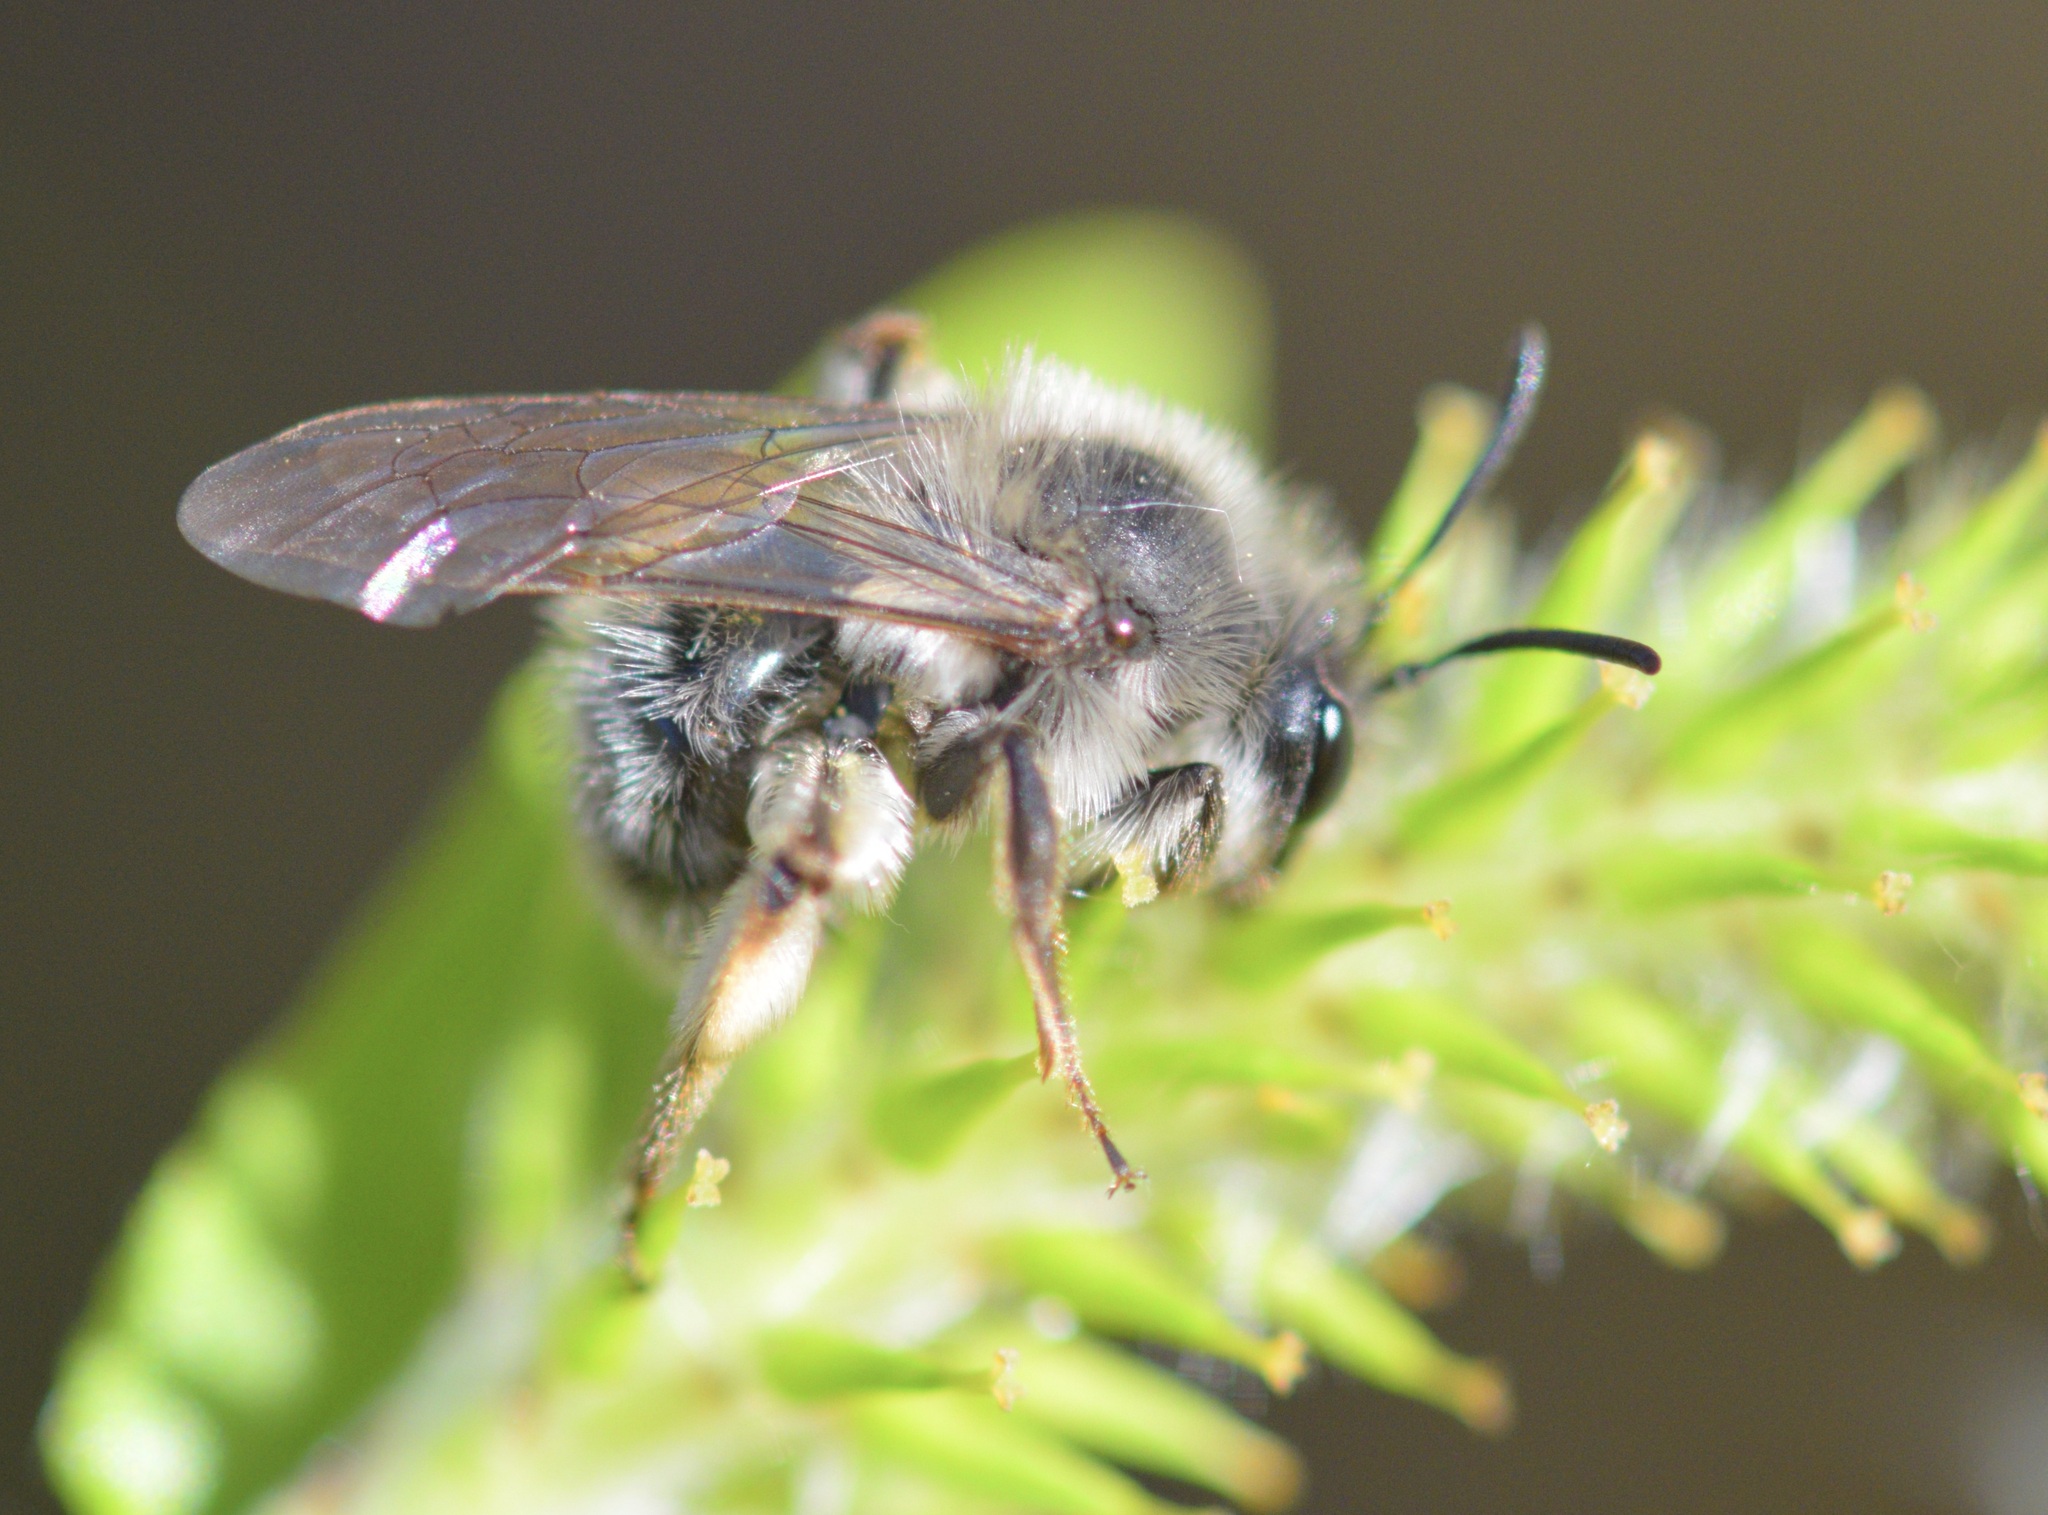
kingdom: Animalia
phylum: Arthropoda
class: Insecta
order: Hymenoptera
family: Andrenidae
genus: Andrena
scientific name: Andrena frigida
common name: Frigid mining bee
